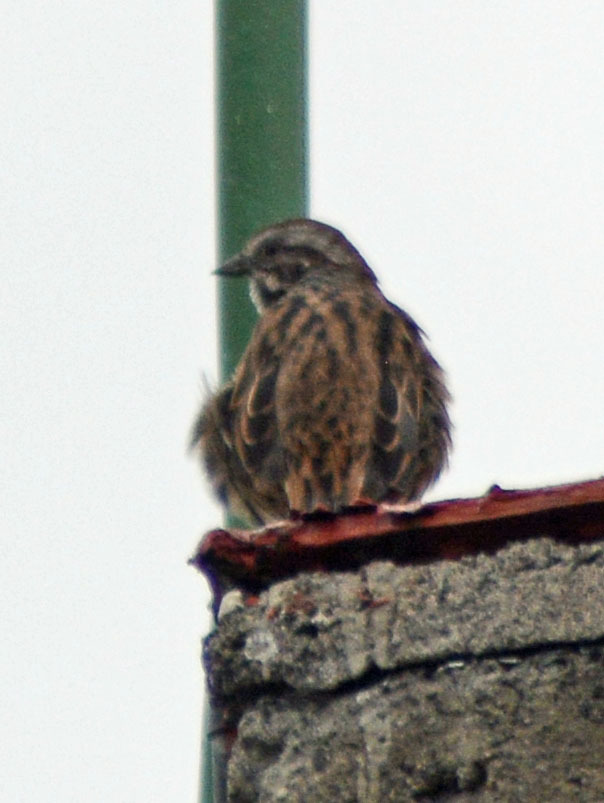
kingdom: Animalia
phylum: Chordata
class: Aves
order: Passeriformes
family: Passerellidae
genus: Melospiza
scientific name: Melospiza melodia
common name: Song sparrow
